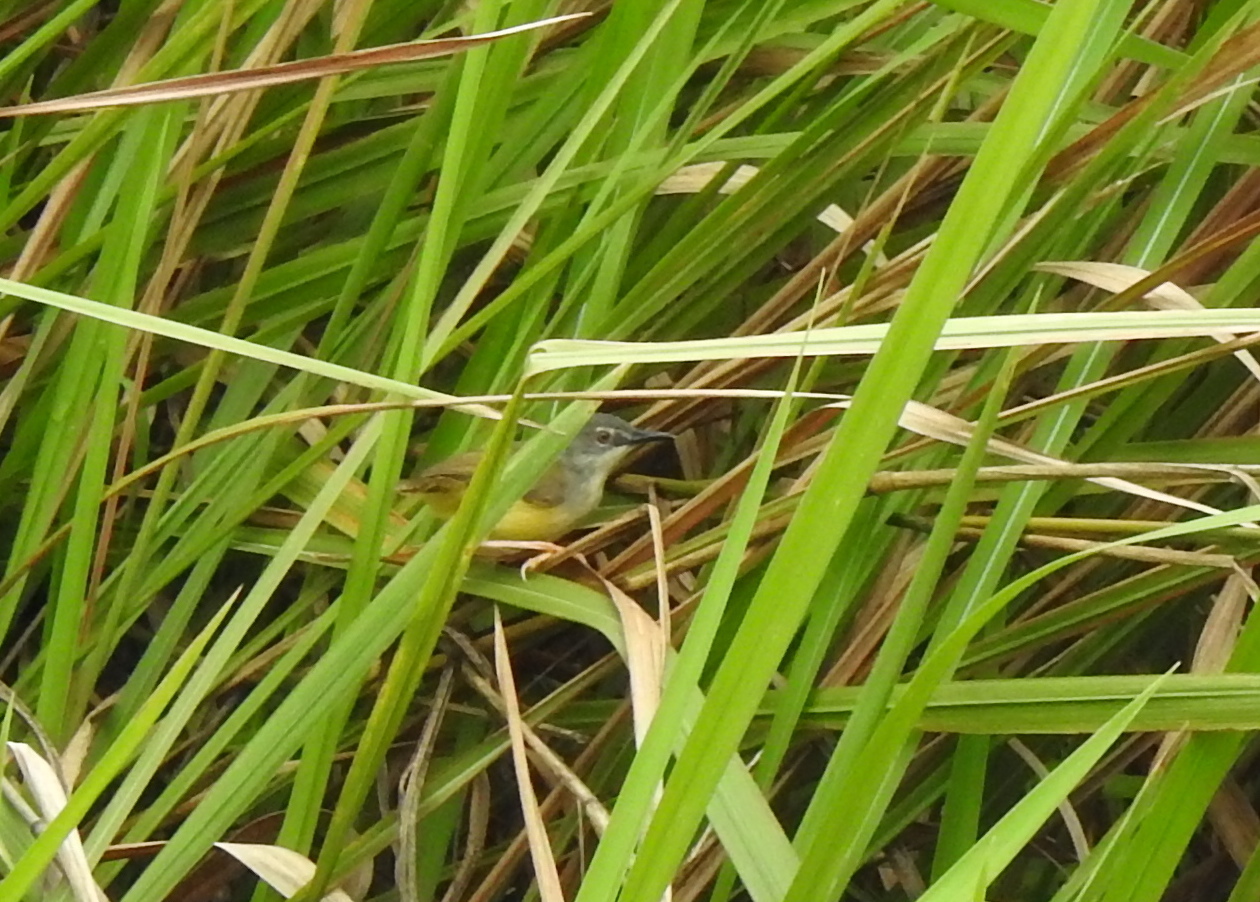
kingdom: Animalia
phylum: Chordata
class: Aves
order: Passeriformes
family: Cisticolidae
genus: Prinia
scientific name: Prinia flaviventris
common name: Yellow-bellied prinia
